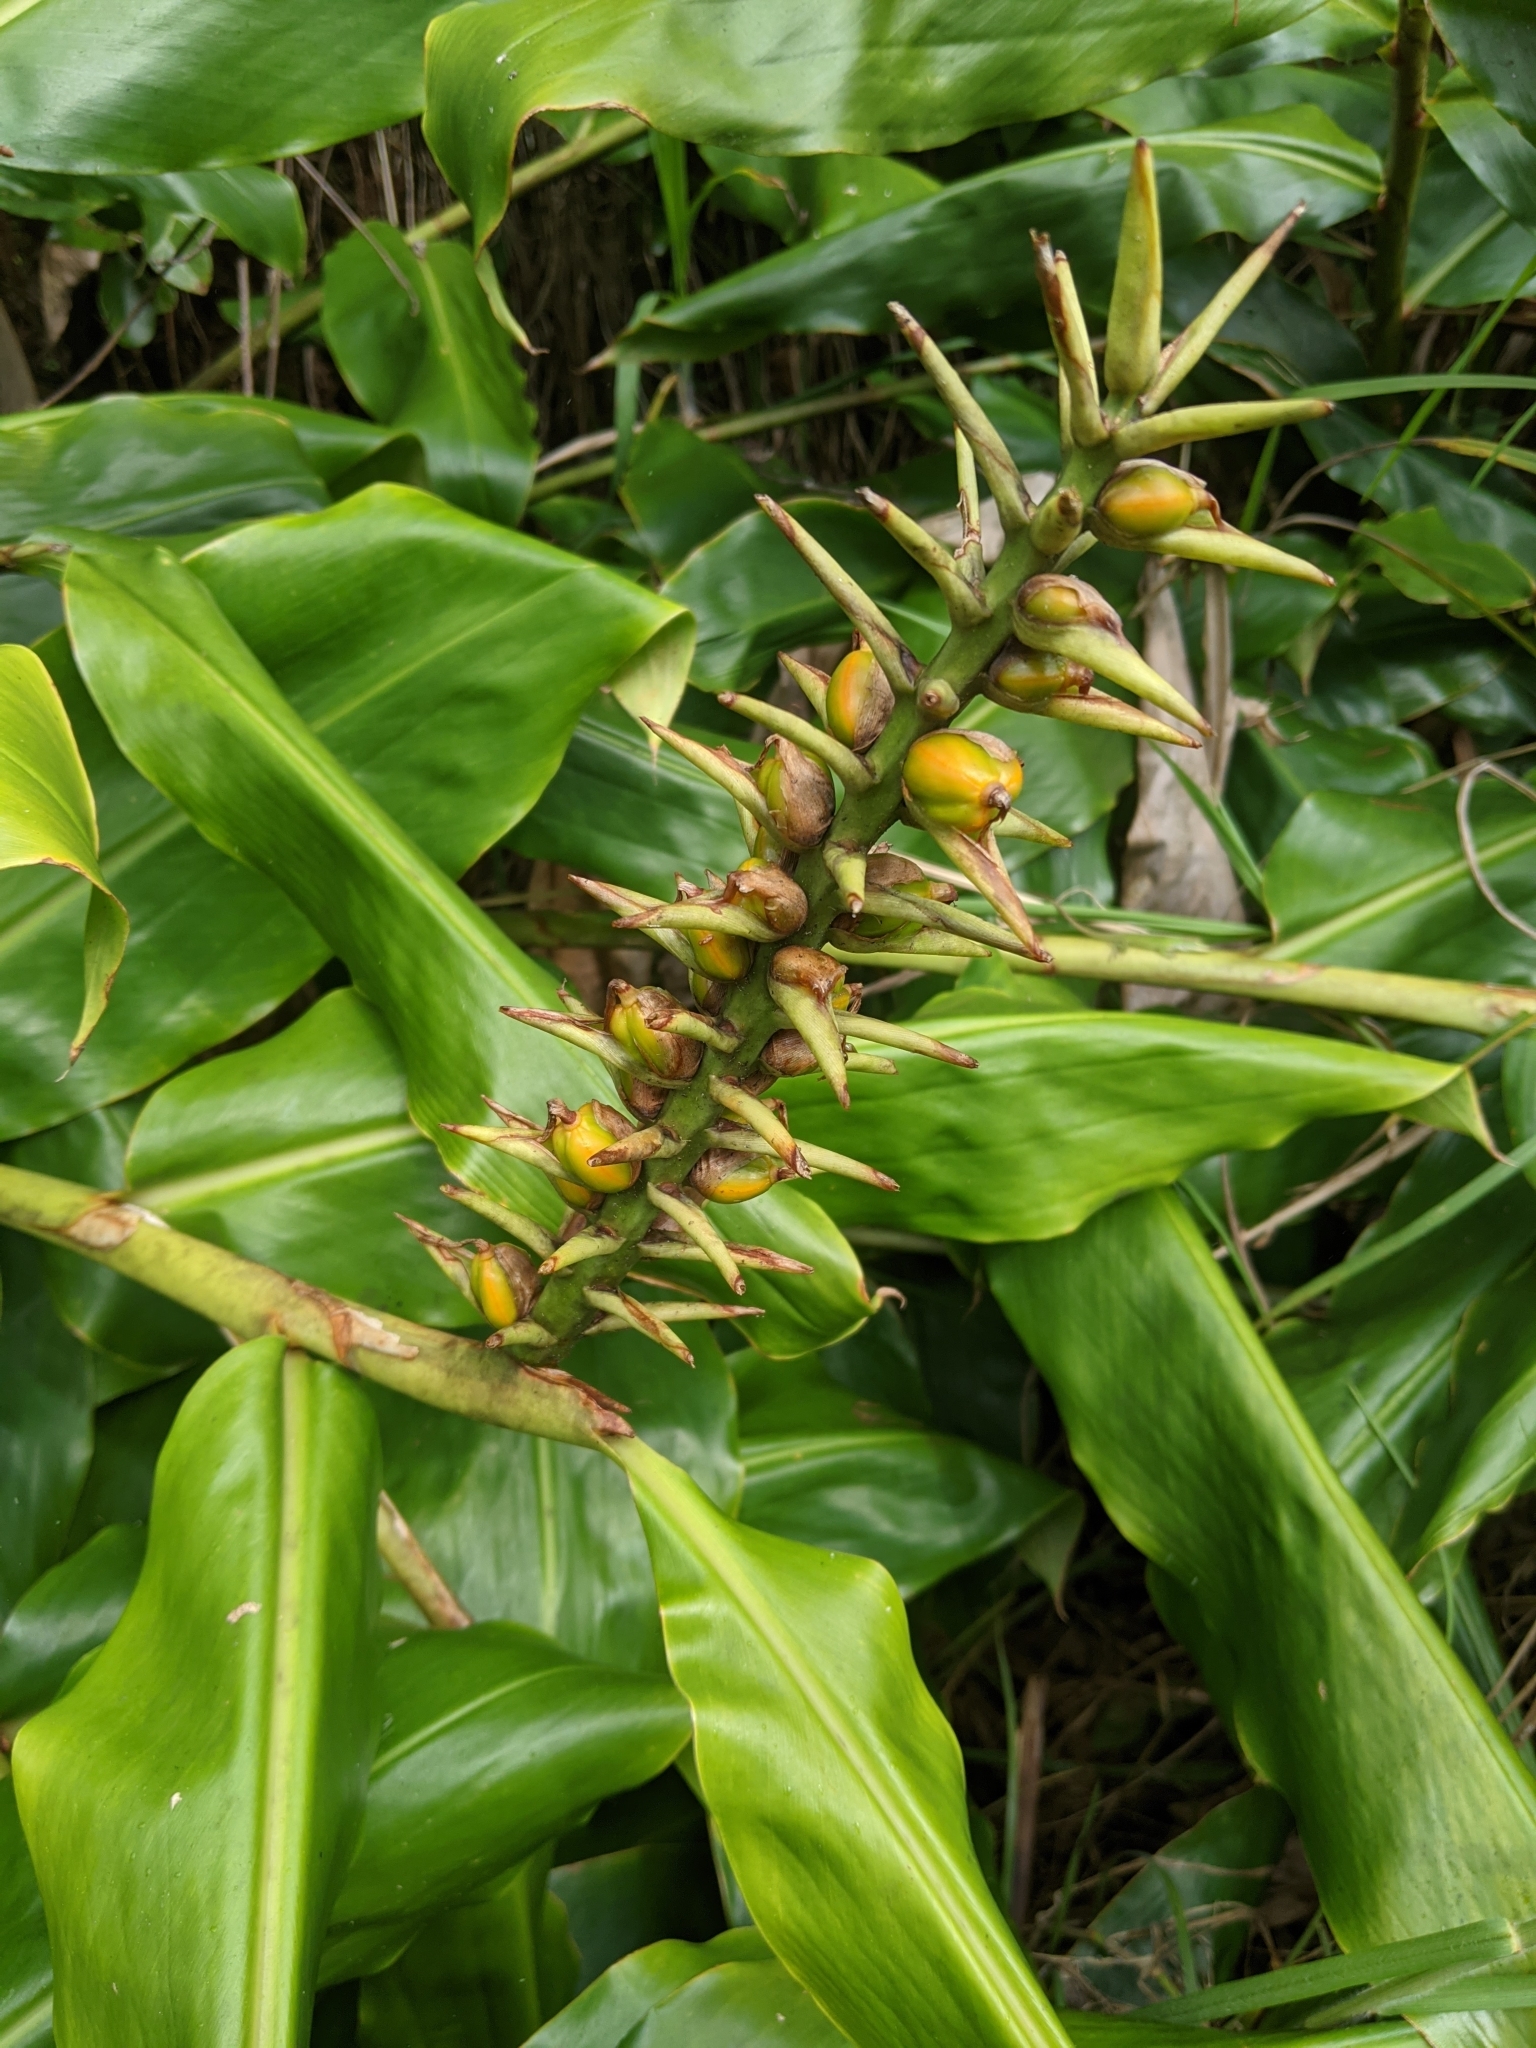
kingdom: Plantae
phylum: Tracheophyta
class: Liliopsida
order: Zingiberales
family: Zingiberaceae
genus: Hedychium
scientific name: Hedychium gardnerianum
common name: Himalayan ginger
